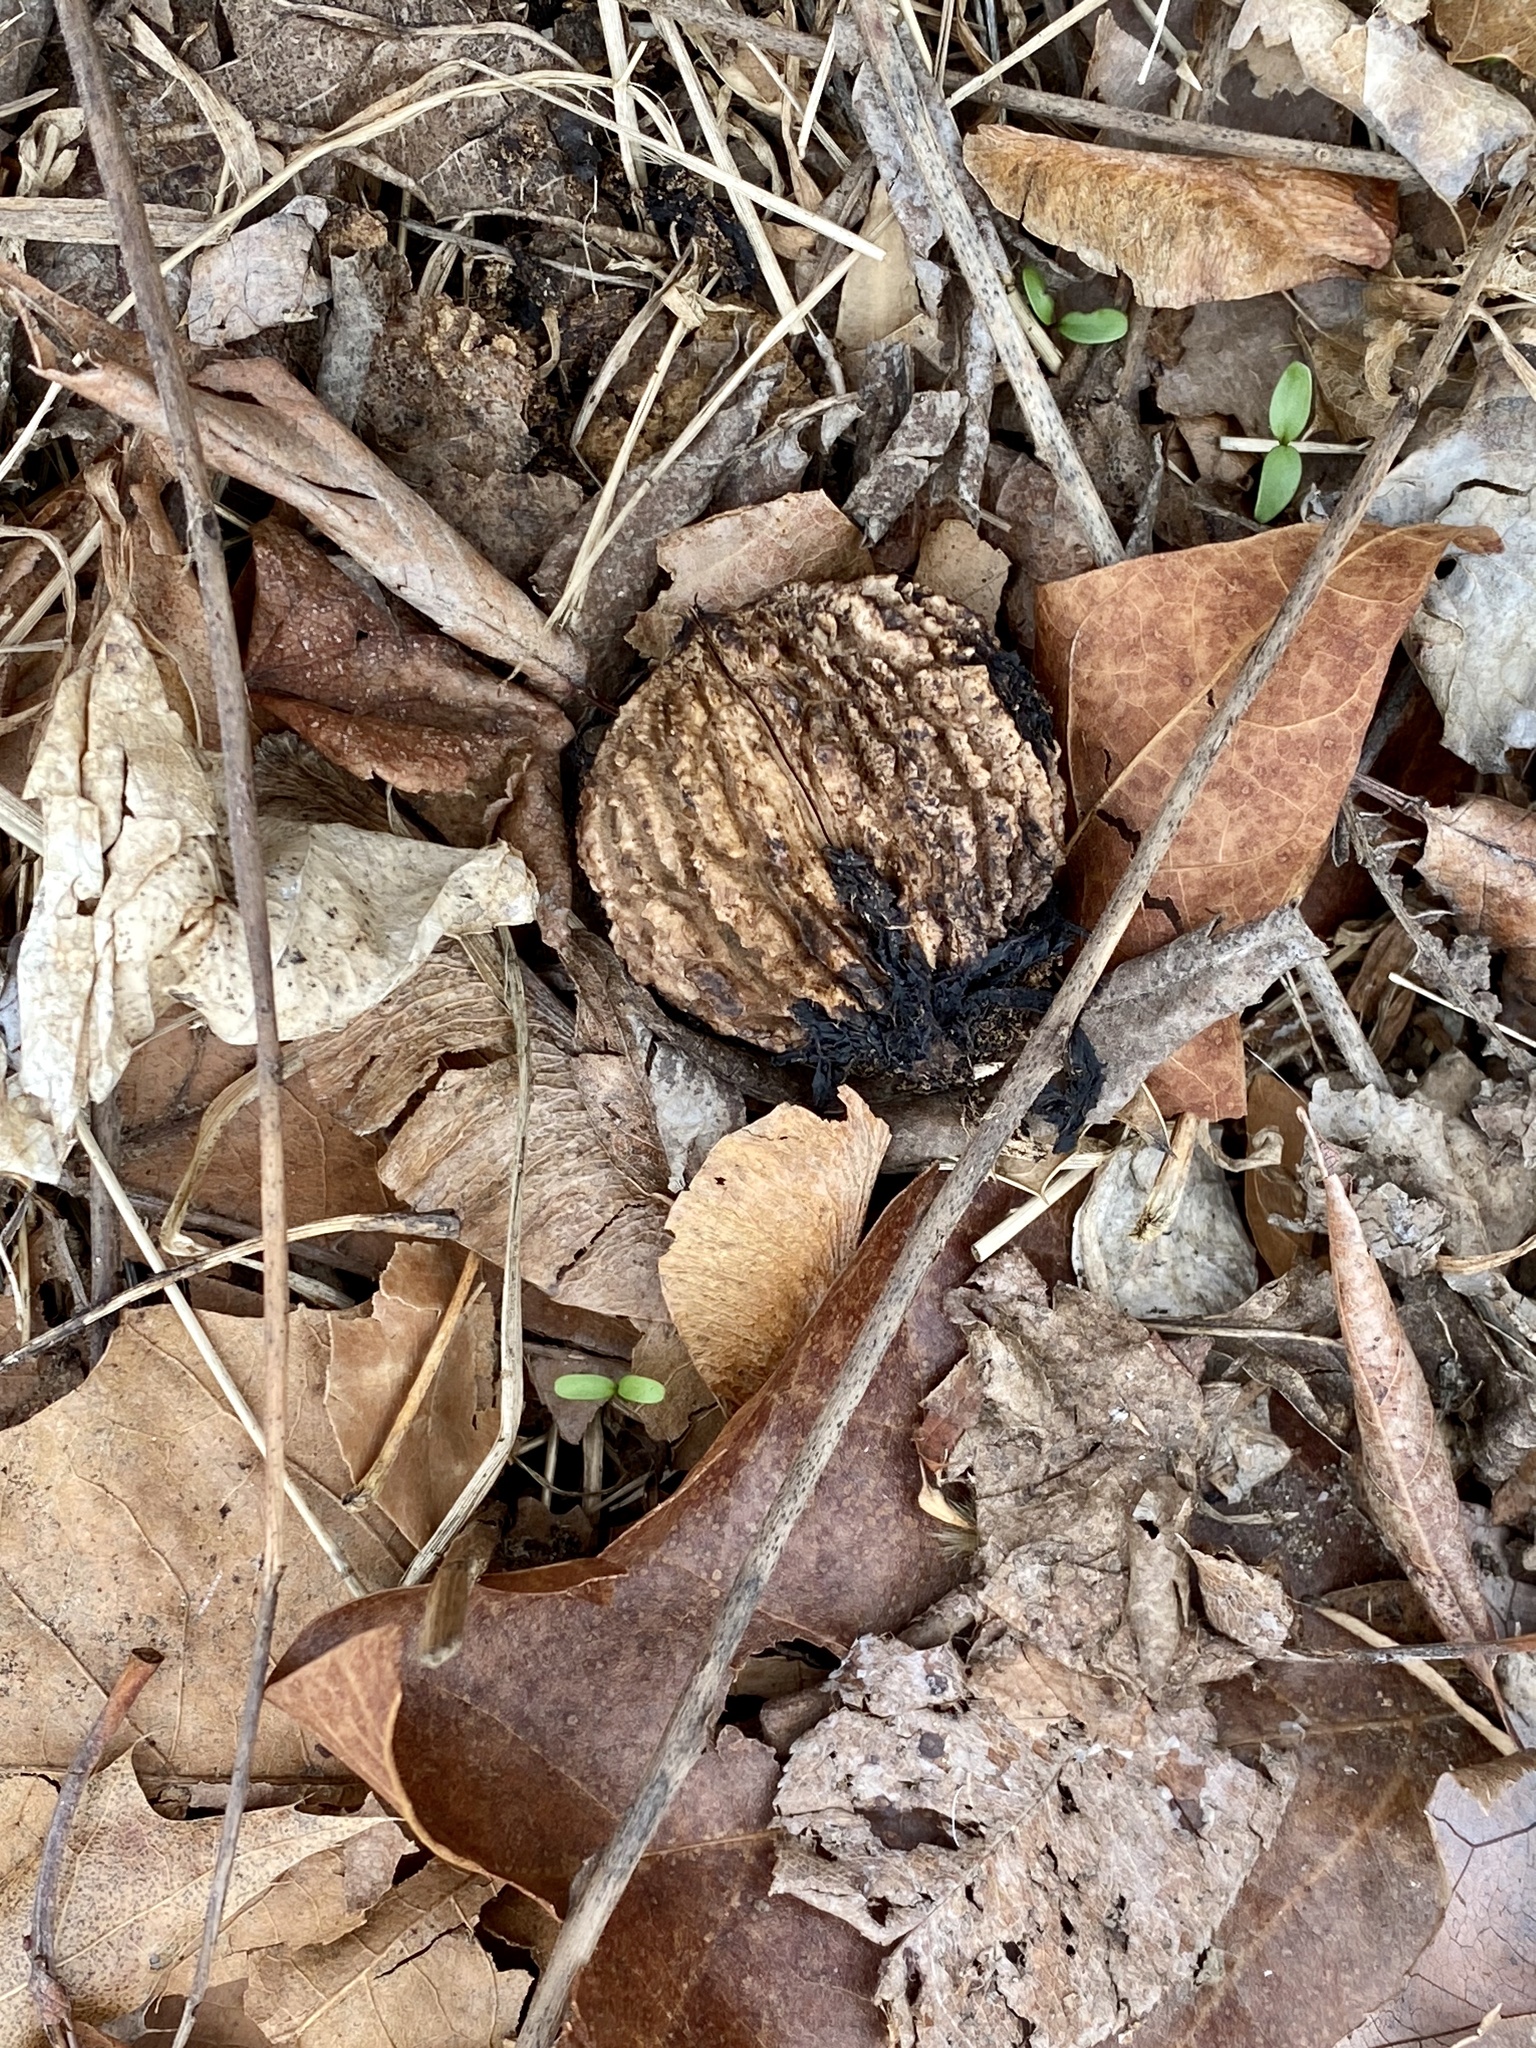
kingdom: Plantae
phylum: Tracheophyta
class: Magnoliopsida
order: Fagales
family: Juglandaceae
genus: Juglans
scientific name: Juglans nigra
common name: Black walnut
